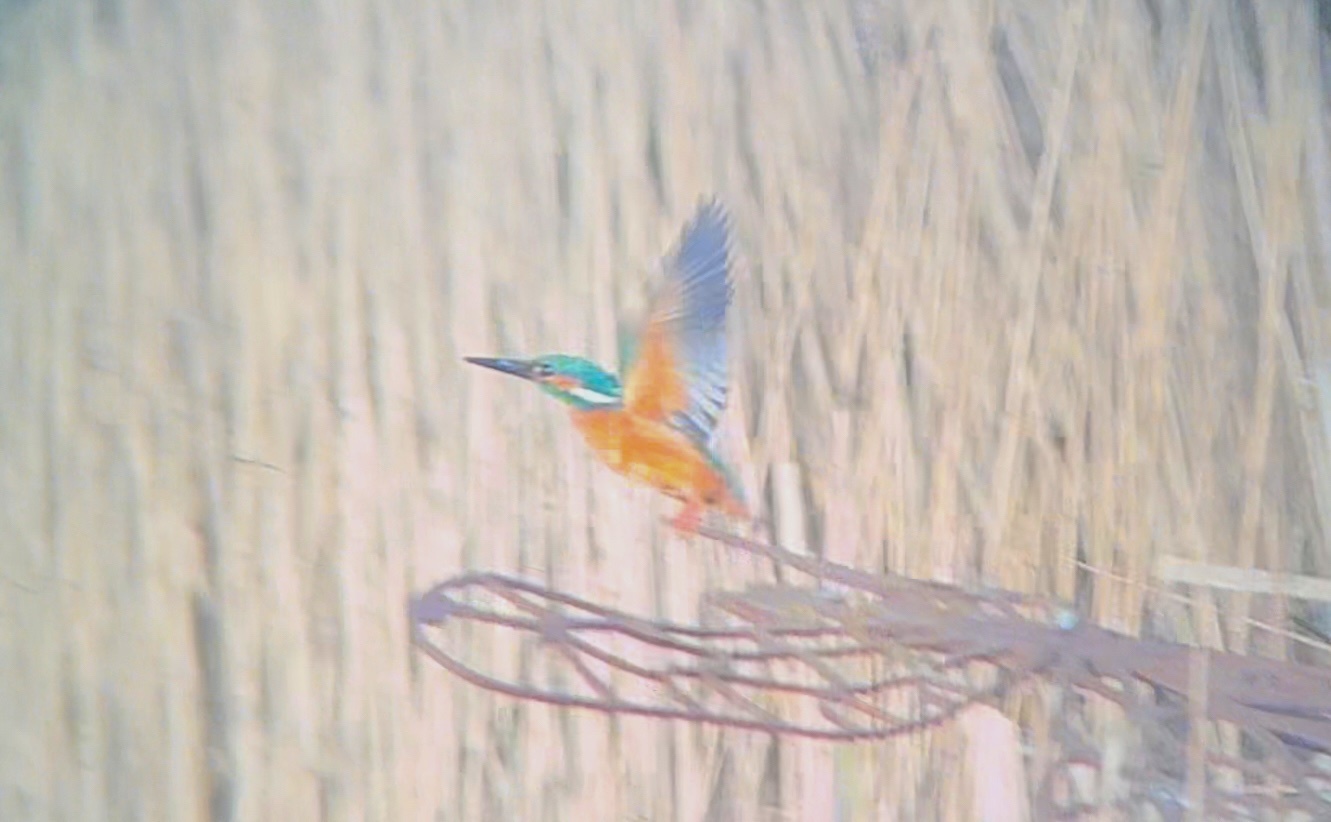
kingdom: Animalia
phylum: Chordata
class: Aves
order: Coraciiformes
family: Alcedinidae
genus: Alcedo
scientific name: Alcedo atthis
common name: Common kingfisher
